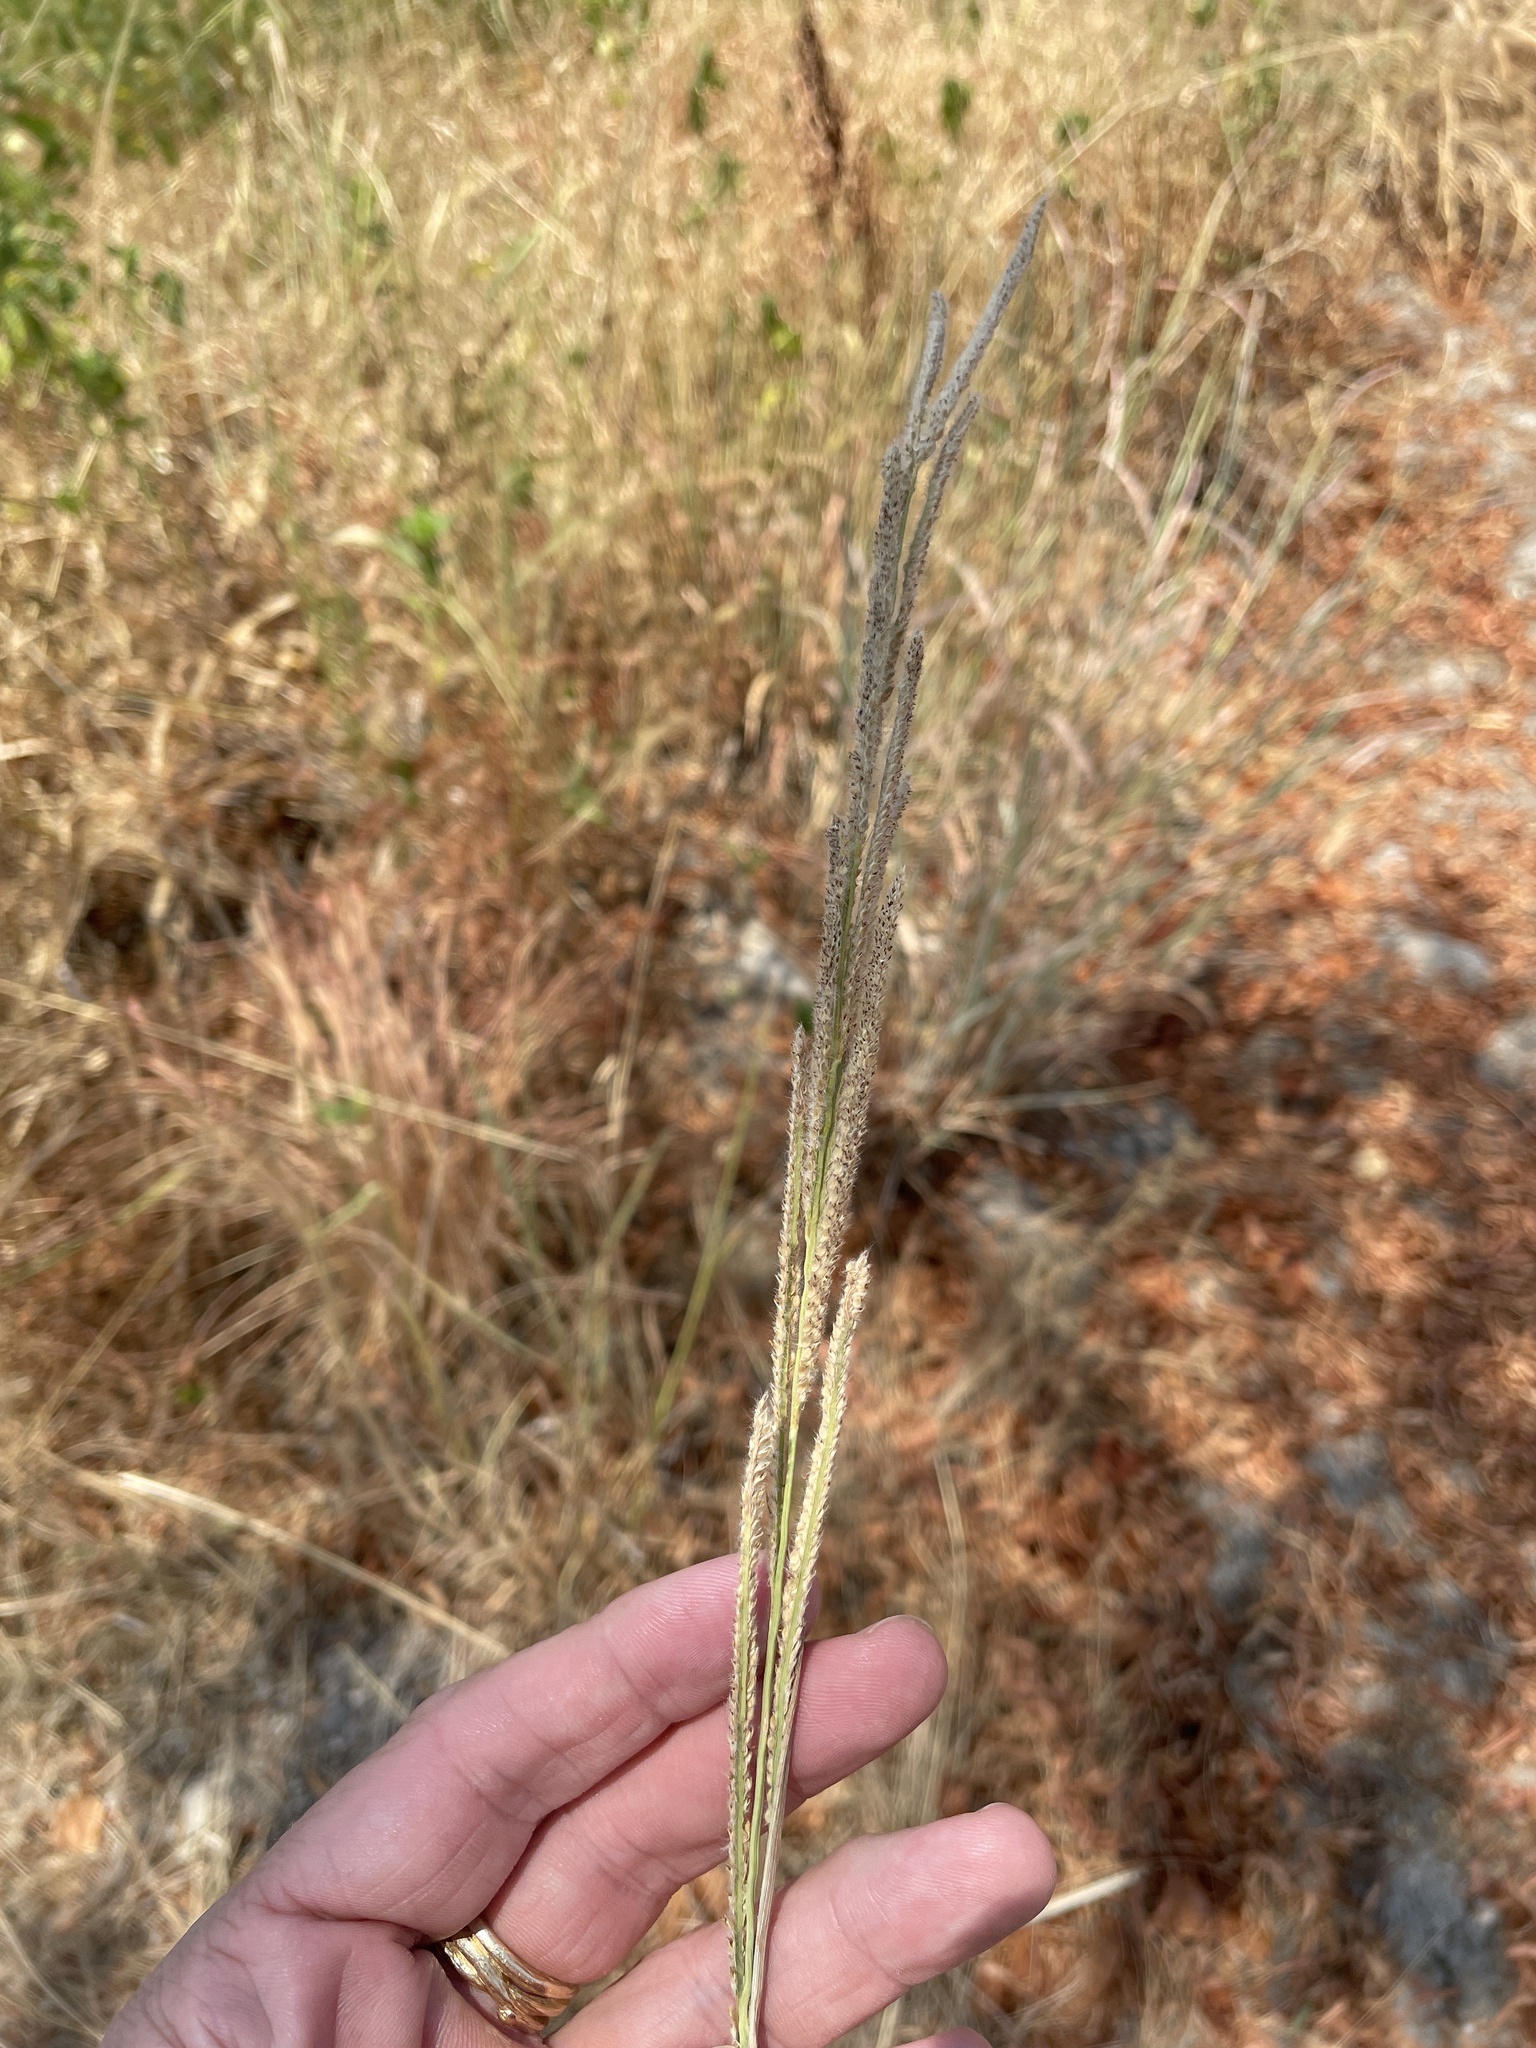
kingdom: Plantae
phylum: Tracheophyta
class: Liliopsida
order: Poales
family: Poaceae
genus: Paspalum
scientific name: Paspalum urvillei
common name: Vasey's grass
